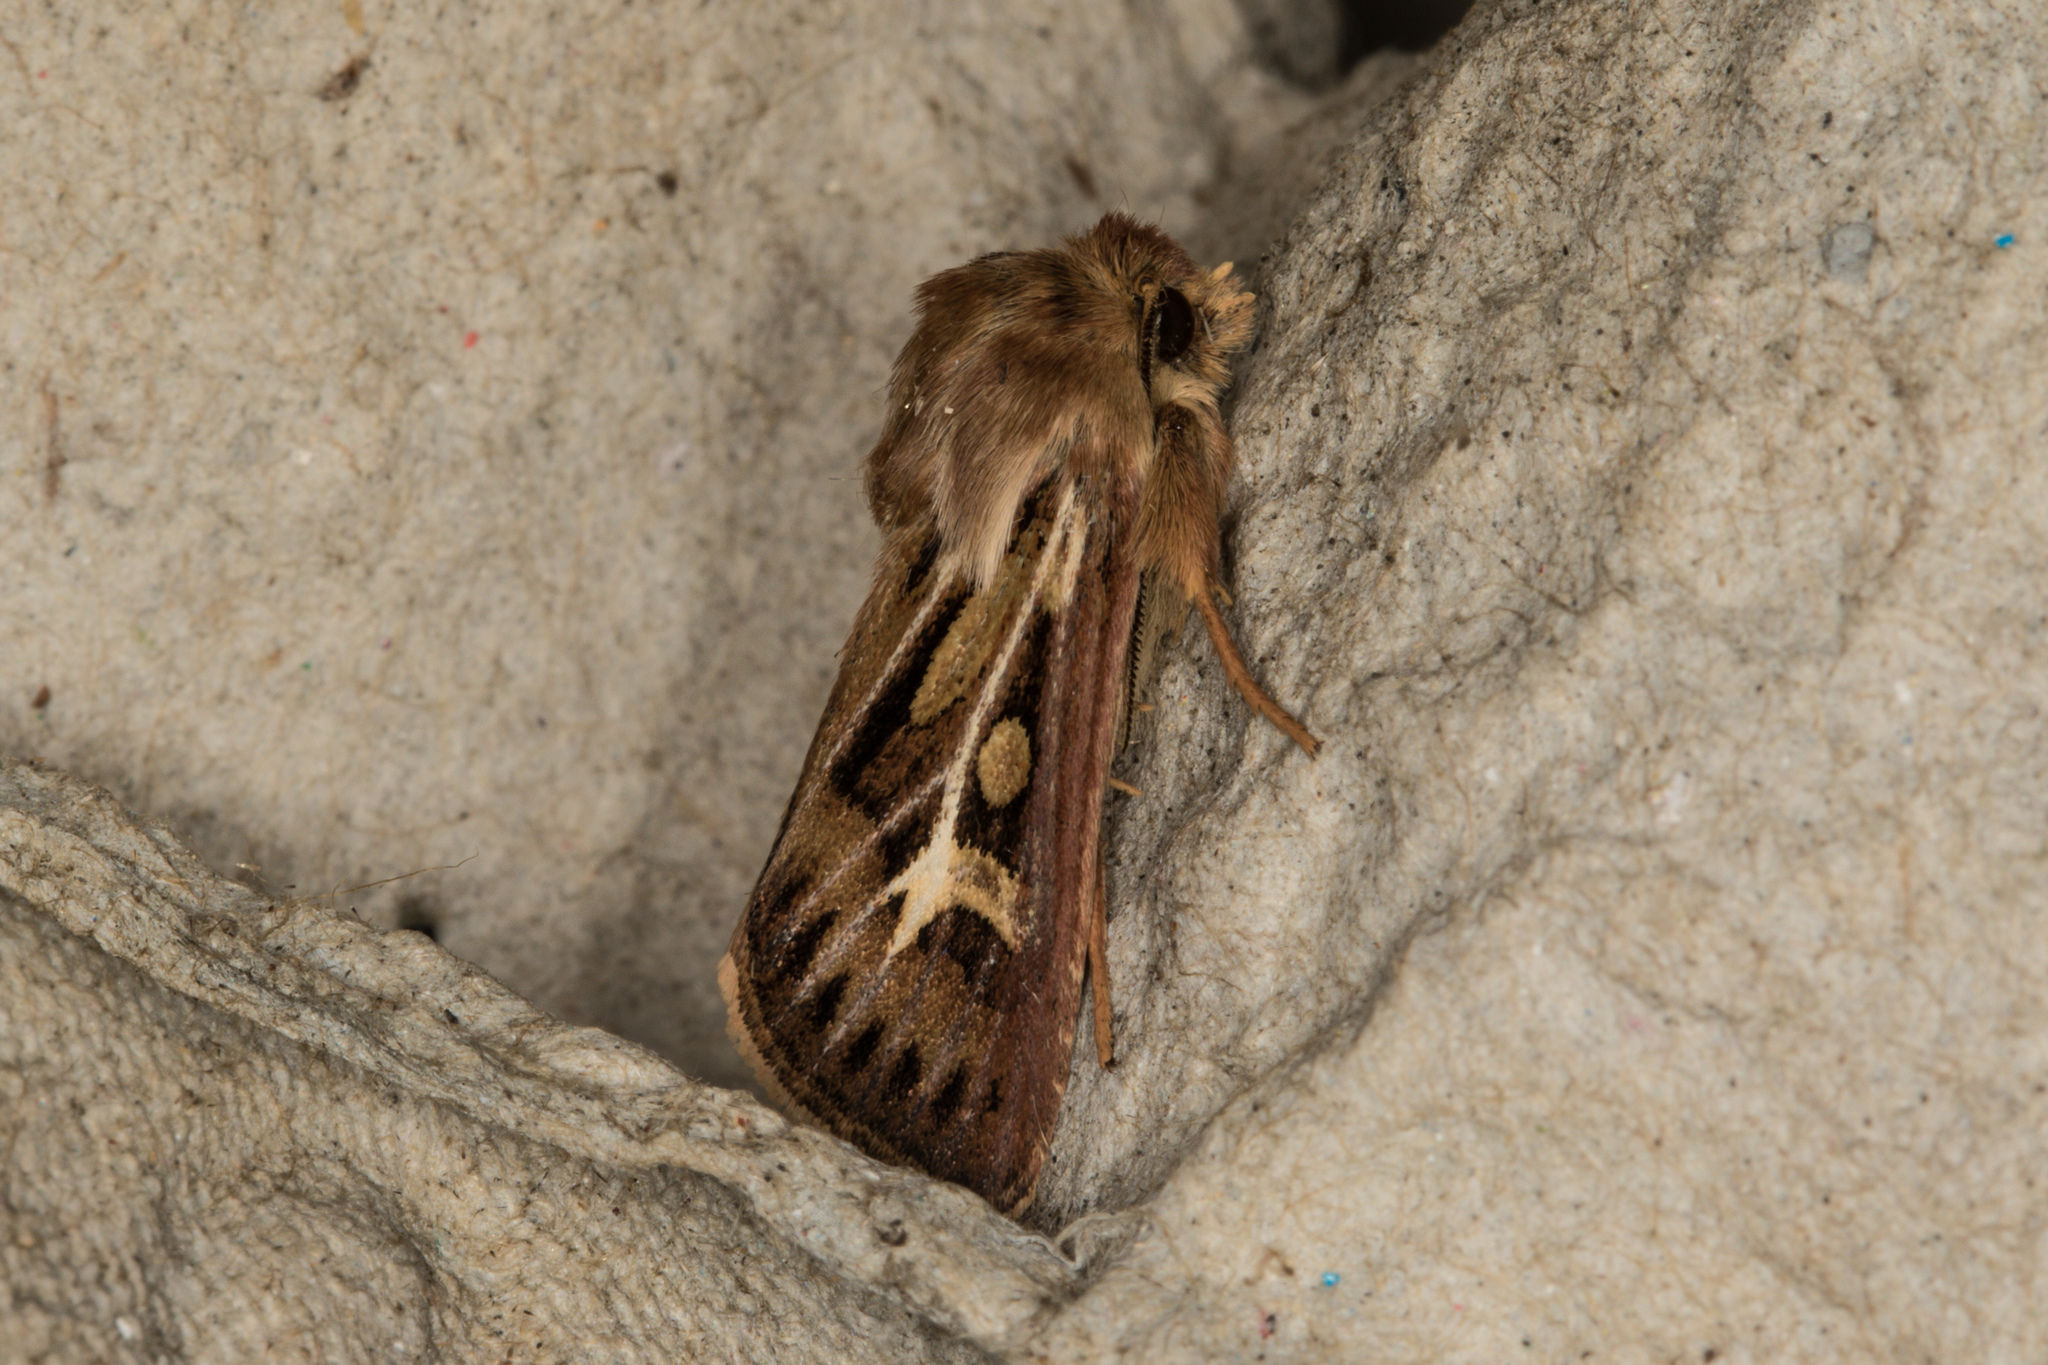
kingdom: Animalia
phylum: Arthropoda
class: Insecta
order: Lepidoptera
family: Noctuidae
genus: Cerapteryx
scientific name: Cerapteryx graminis
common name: Antler moth
